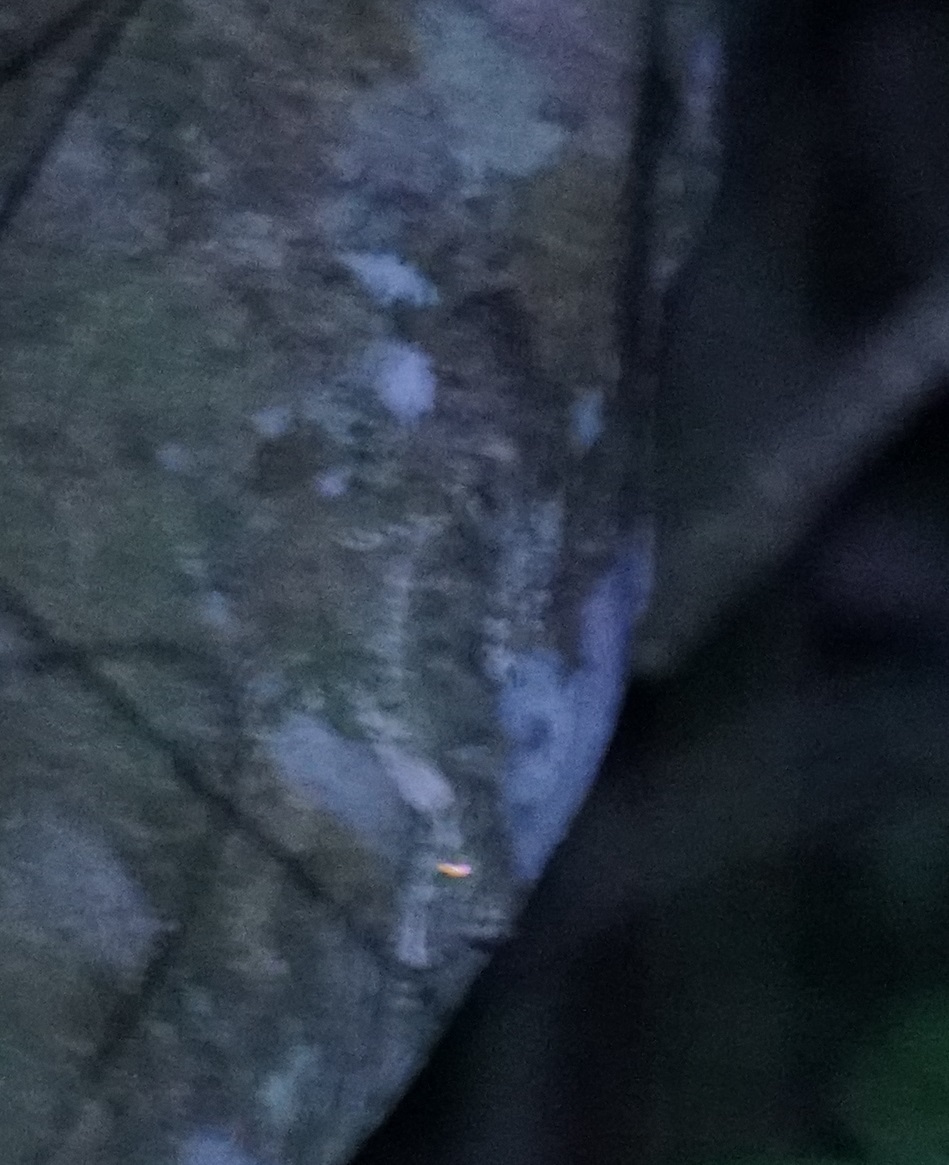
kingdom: Animalia
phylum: Chordata
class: Squamata
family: Carphodactylidae
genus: Saltuarius
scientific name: Saltuarius cornutus
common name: Leaf-tailed gecko
